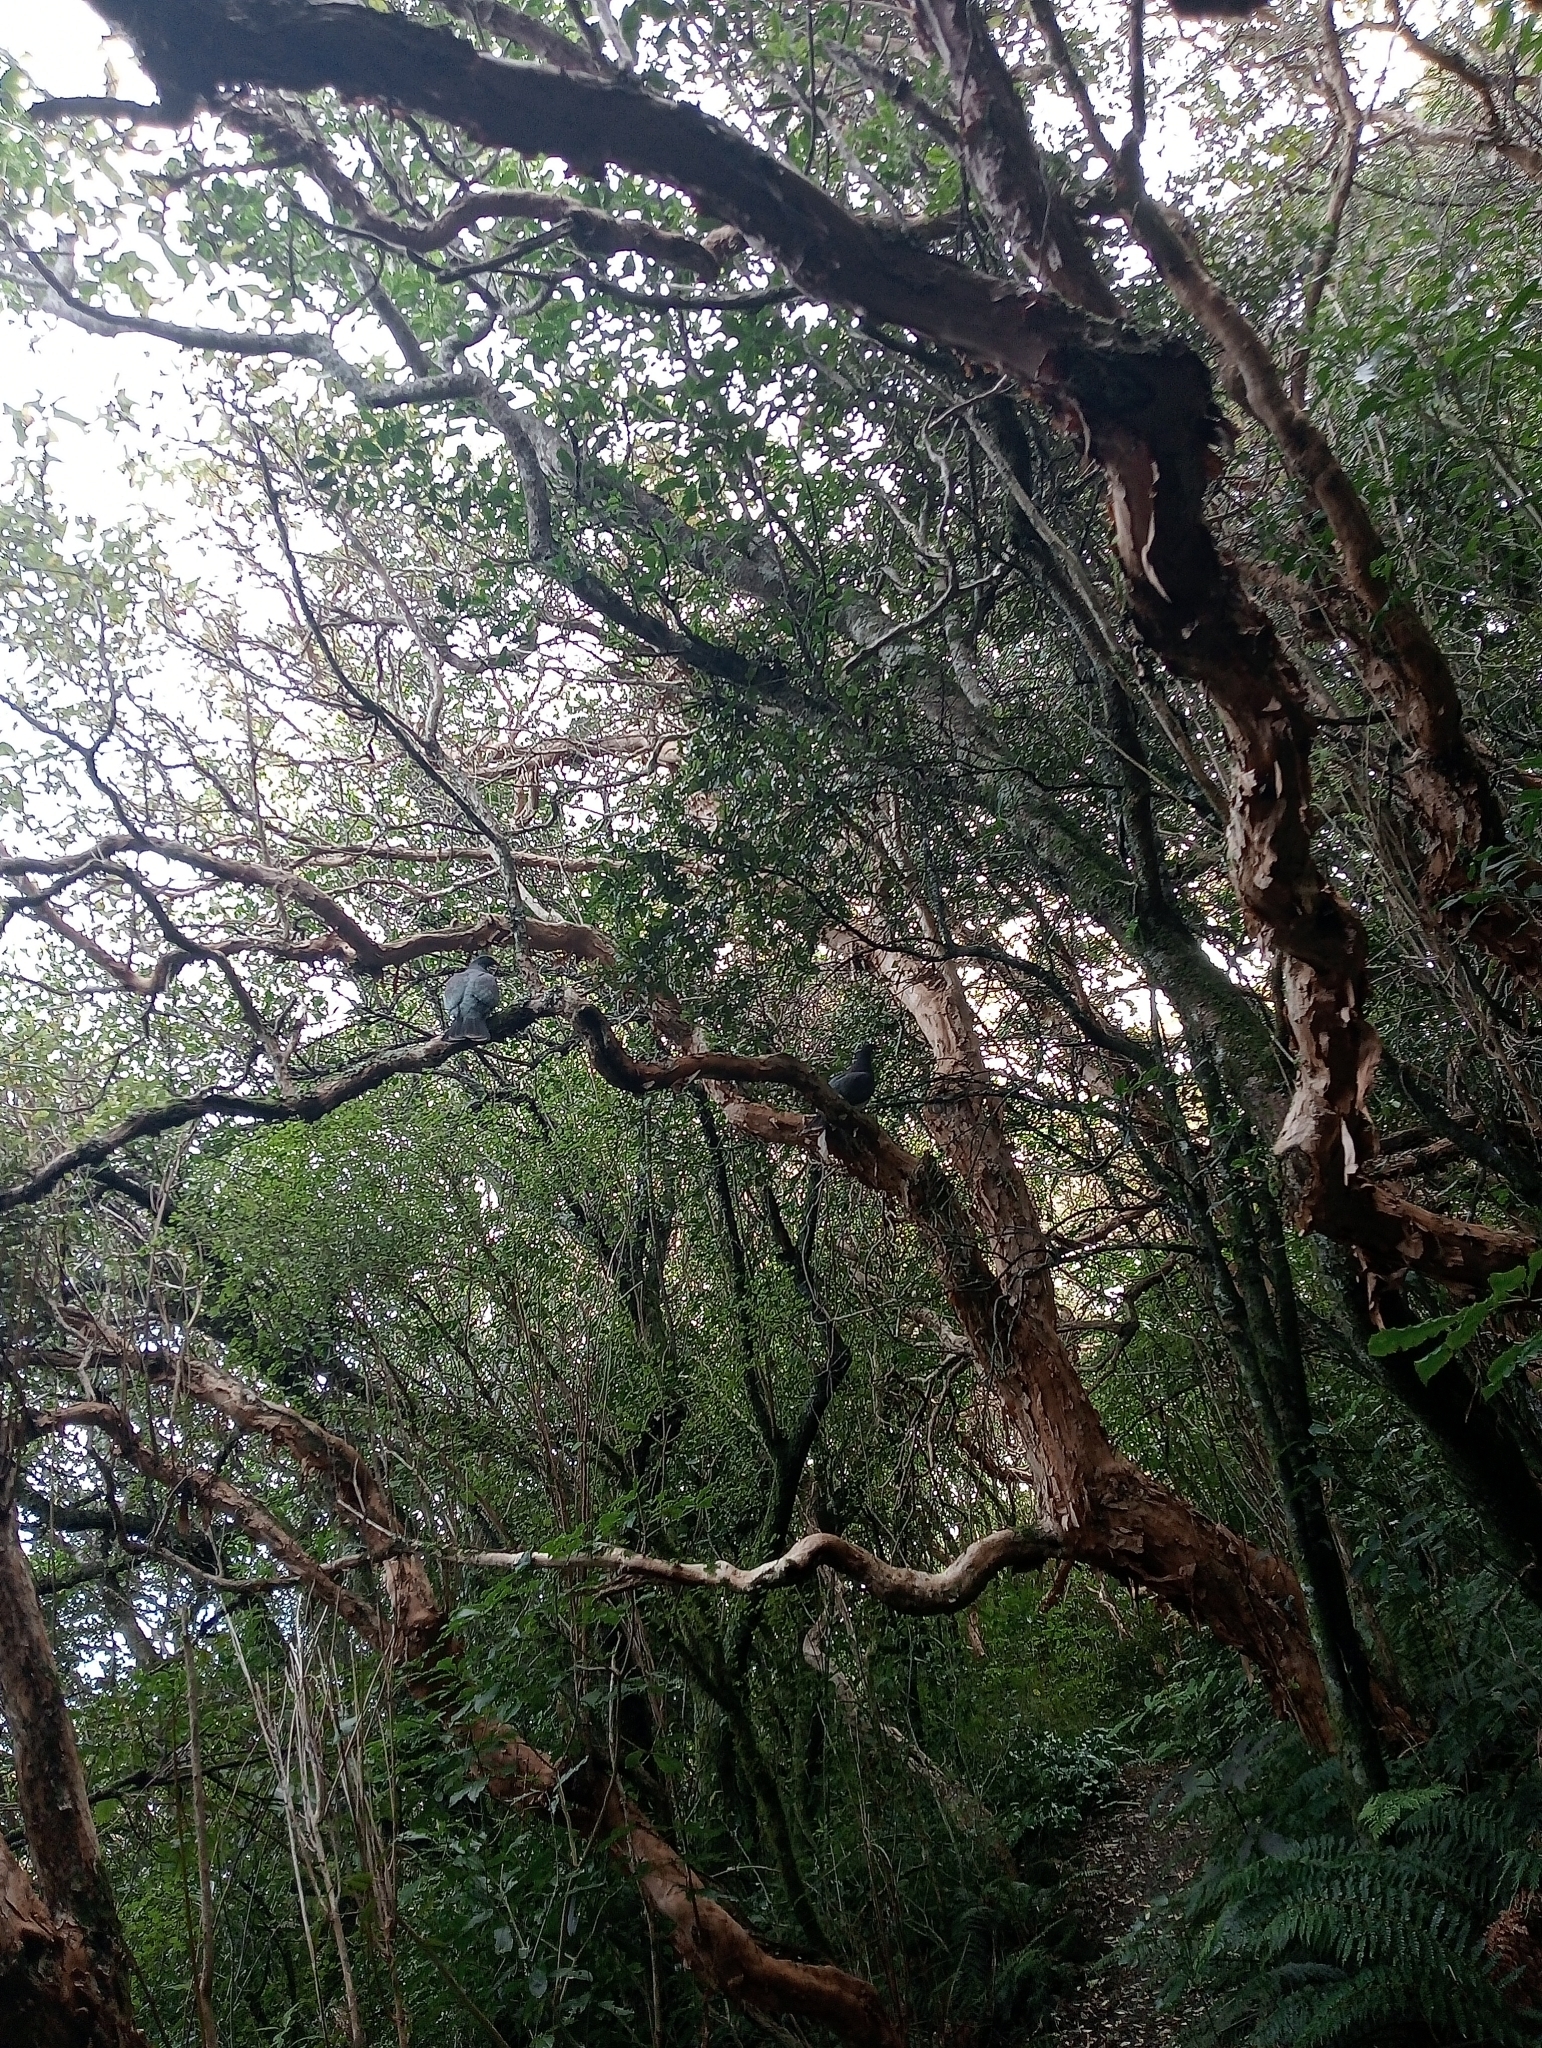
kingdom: Animalia
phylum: Chordata
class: Aves
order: Columbiformes
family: Columbidae
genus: Hemiphaga
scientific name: Hemiphaga novaeseelandiae
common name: New zealand pigeon
